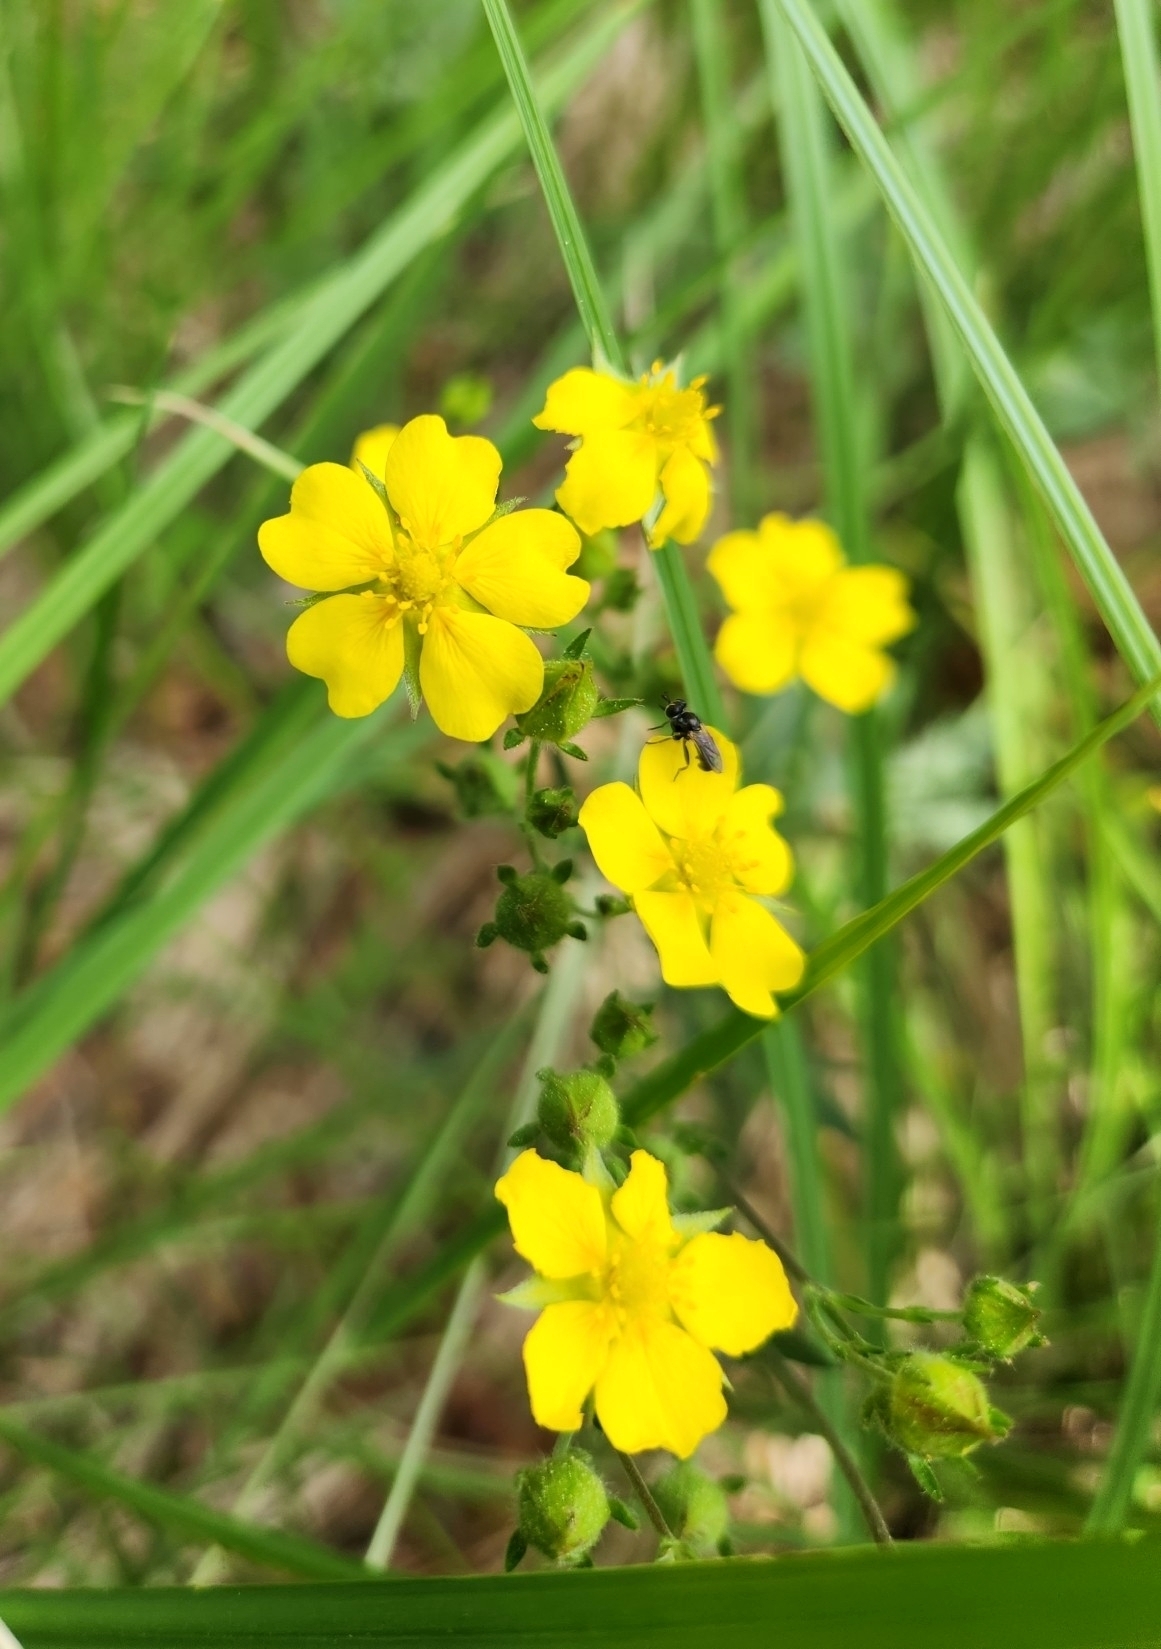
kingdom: Plantae
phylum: Tracheophyta
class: Magnoliopsida
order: Rosales
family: Rosaceae
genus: Potentilla
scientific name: Potentilla gracilis
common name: Graceful cinquefoil
